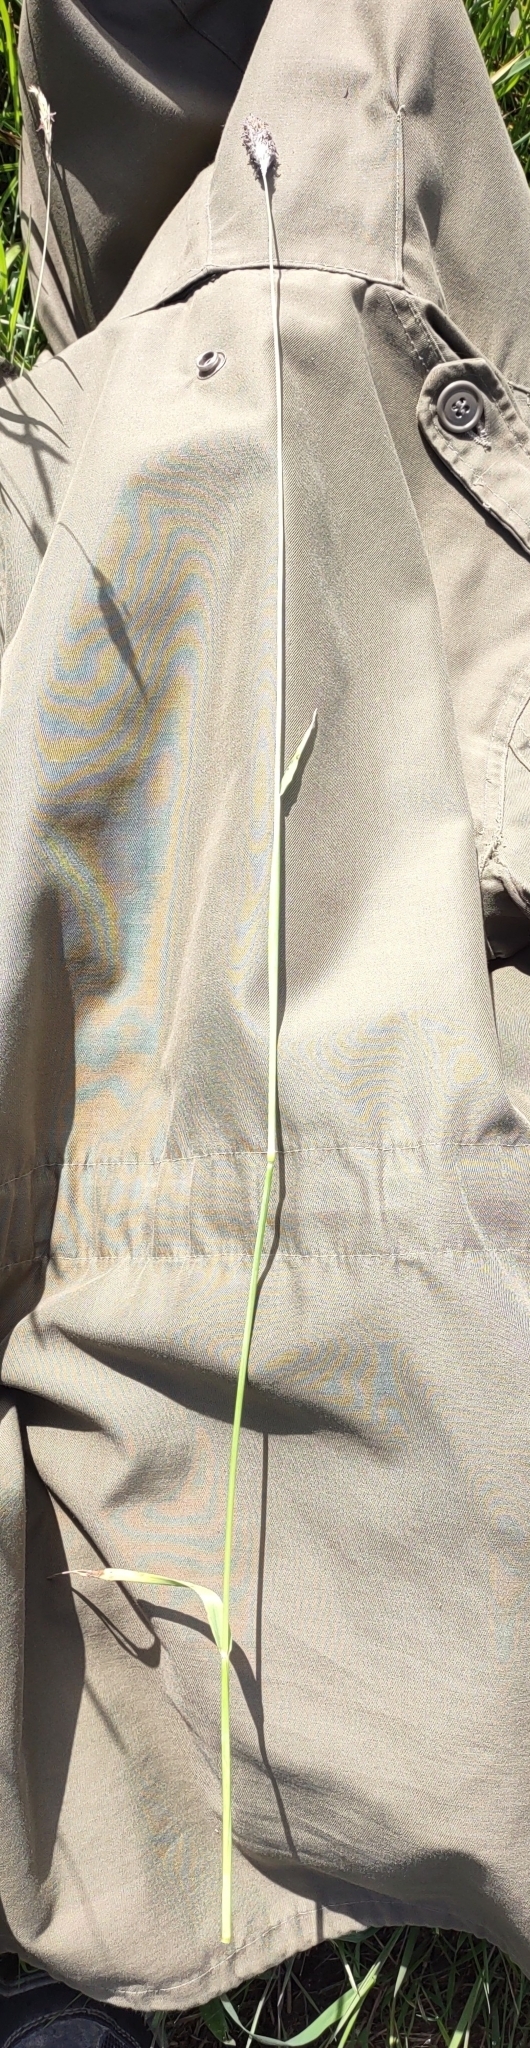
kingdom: Plantae
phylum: Tracheophyta
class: Liliopsida
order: Poales
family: Poaceae
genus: Alopecurus
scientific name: Alopecurus pratensis
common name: Meadow foxtail
